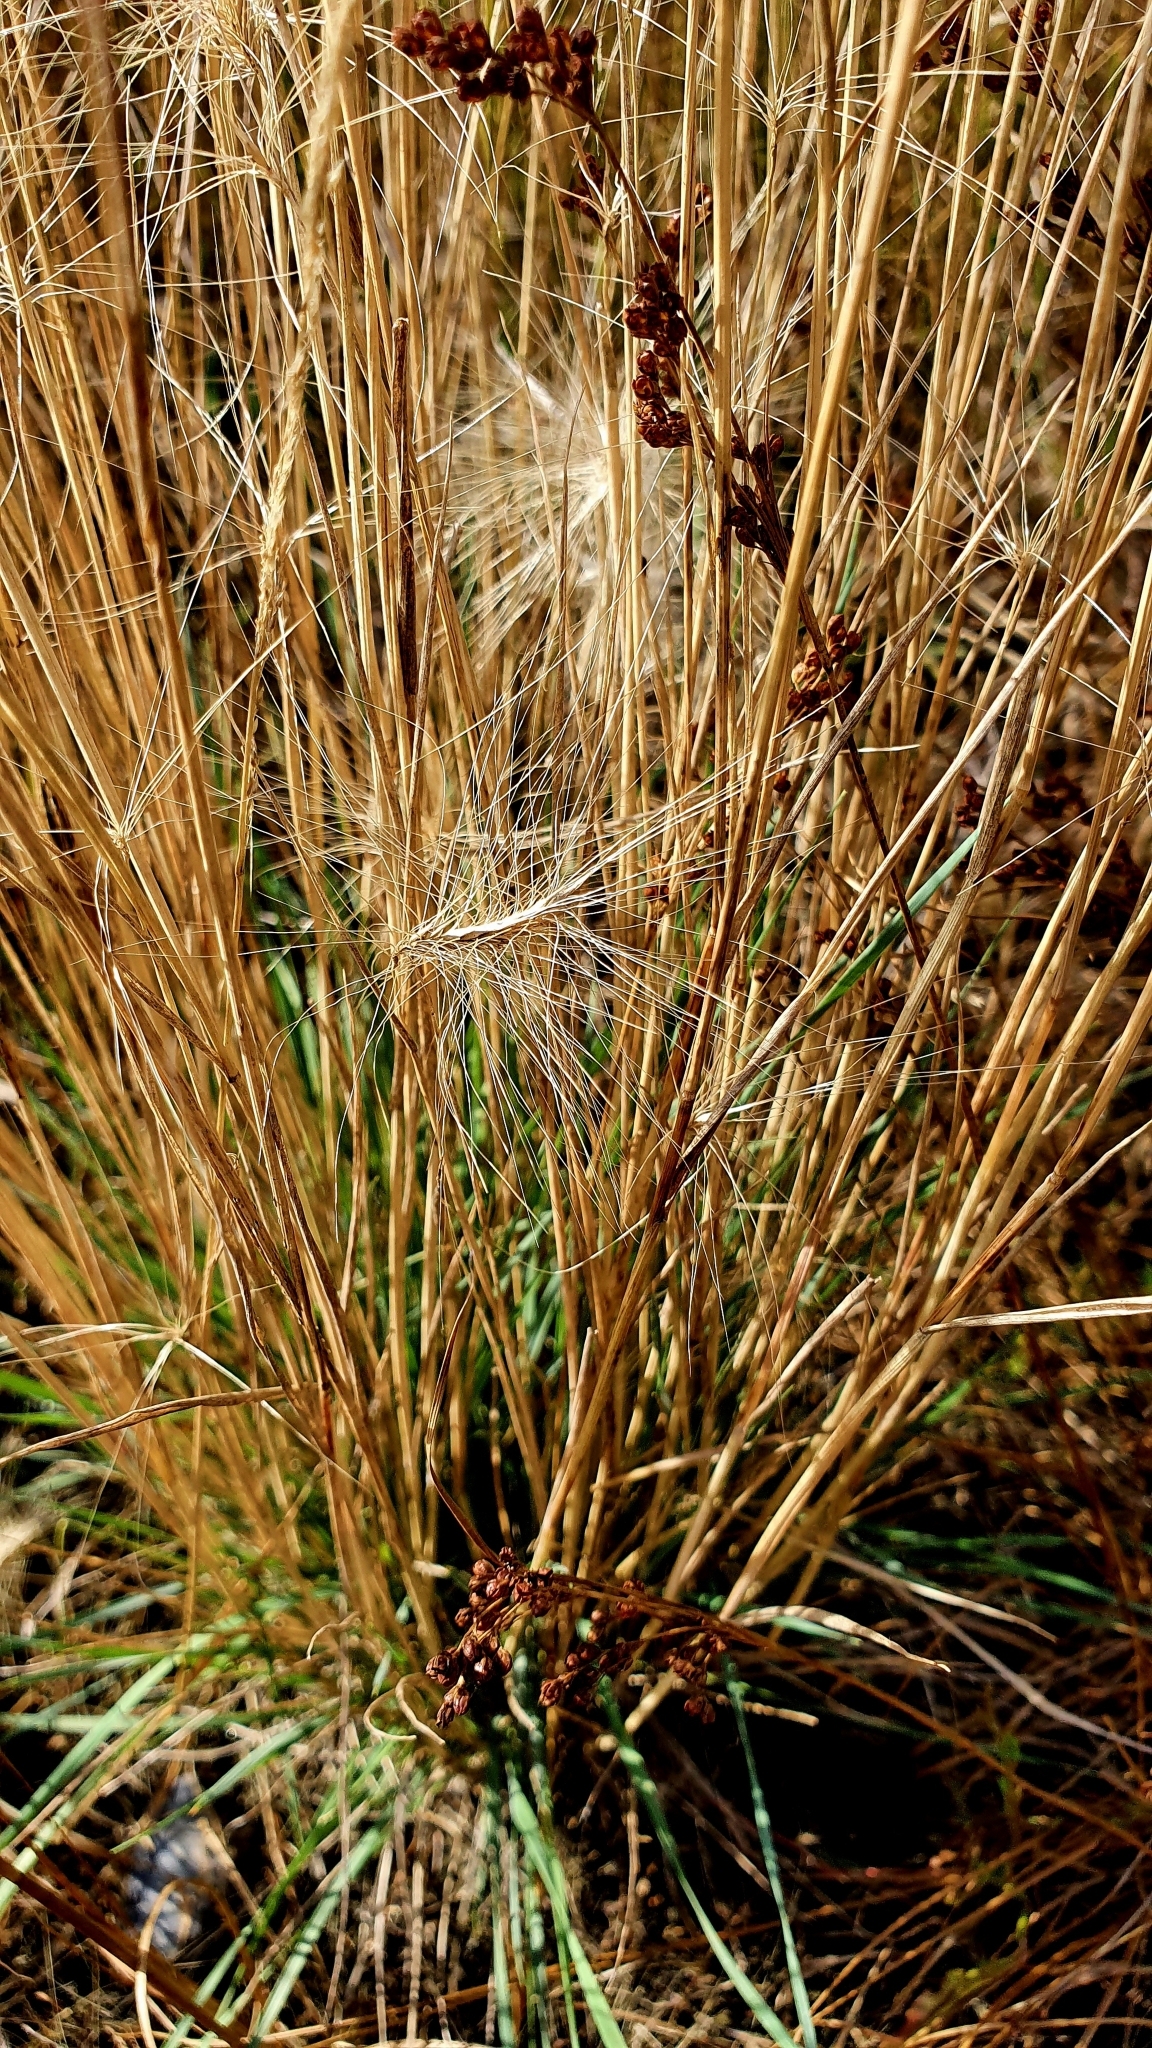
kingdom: Plantae
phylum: Tracheophyta
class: Liliopsida
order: Poales
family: Poaceae
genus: Hordeum
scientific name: Hordeum jubatum
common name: Foxtail barley
